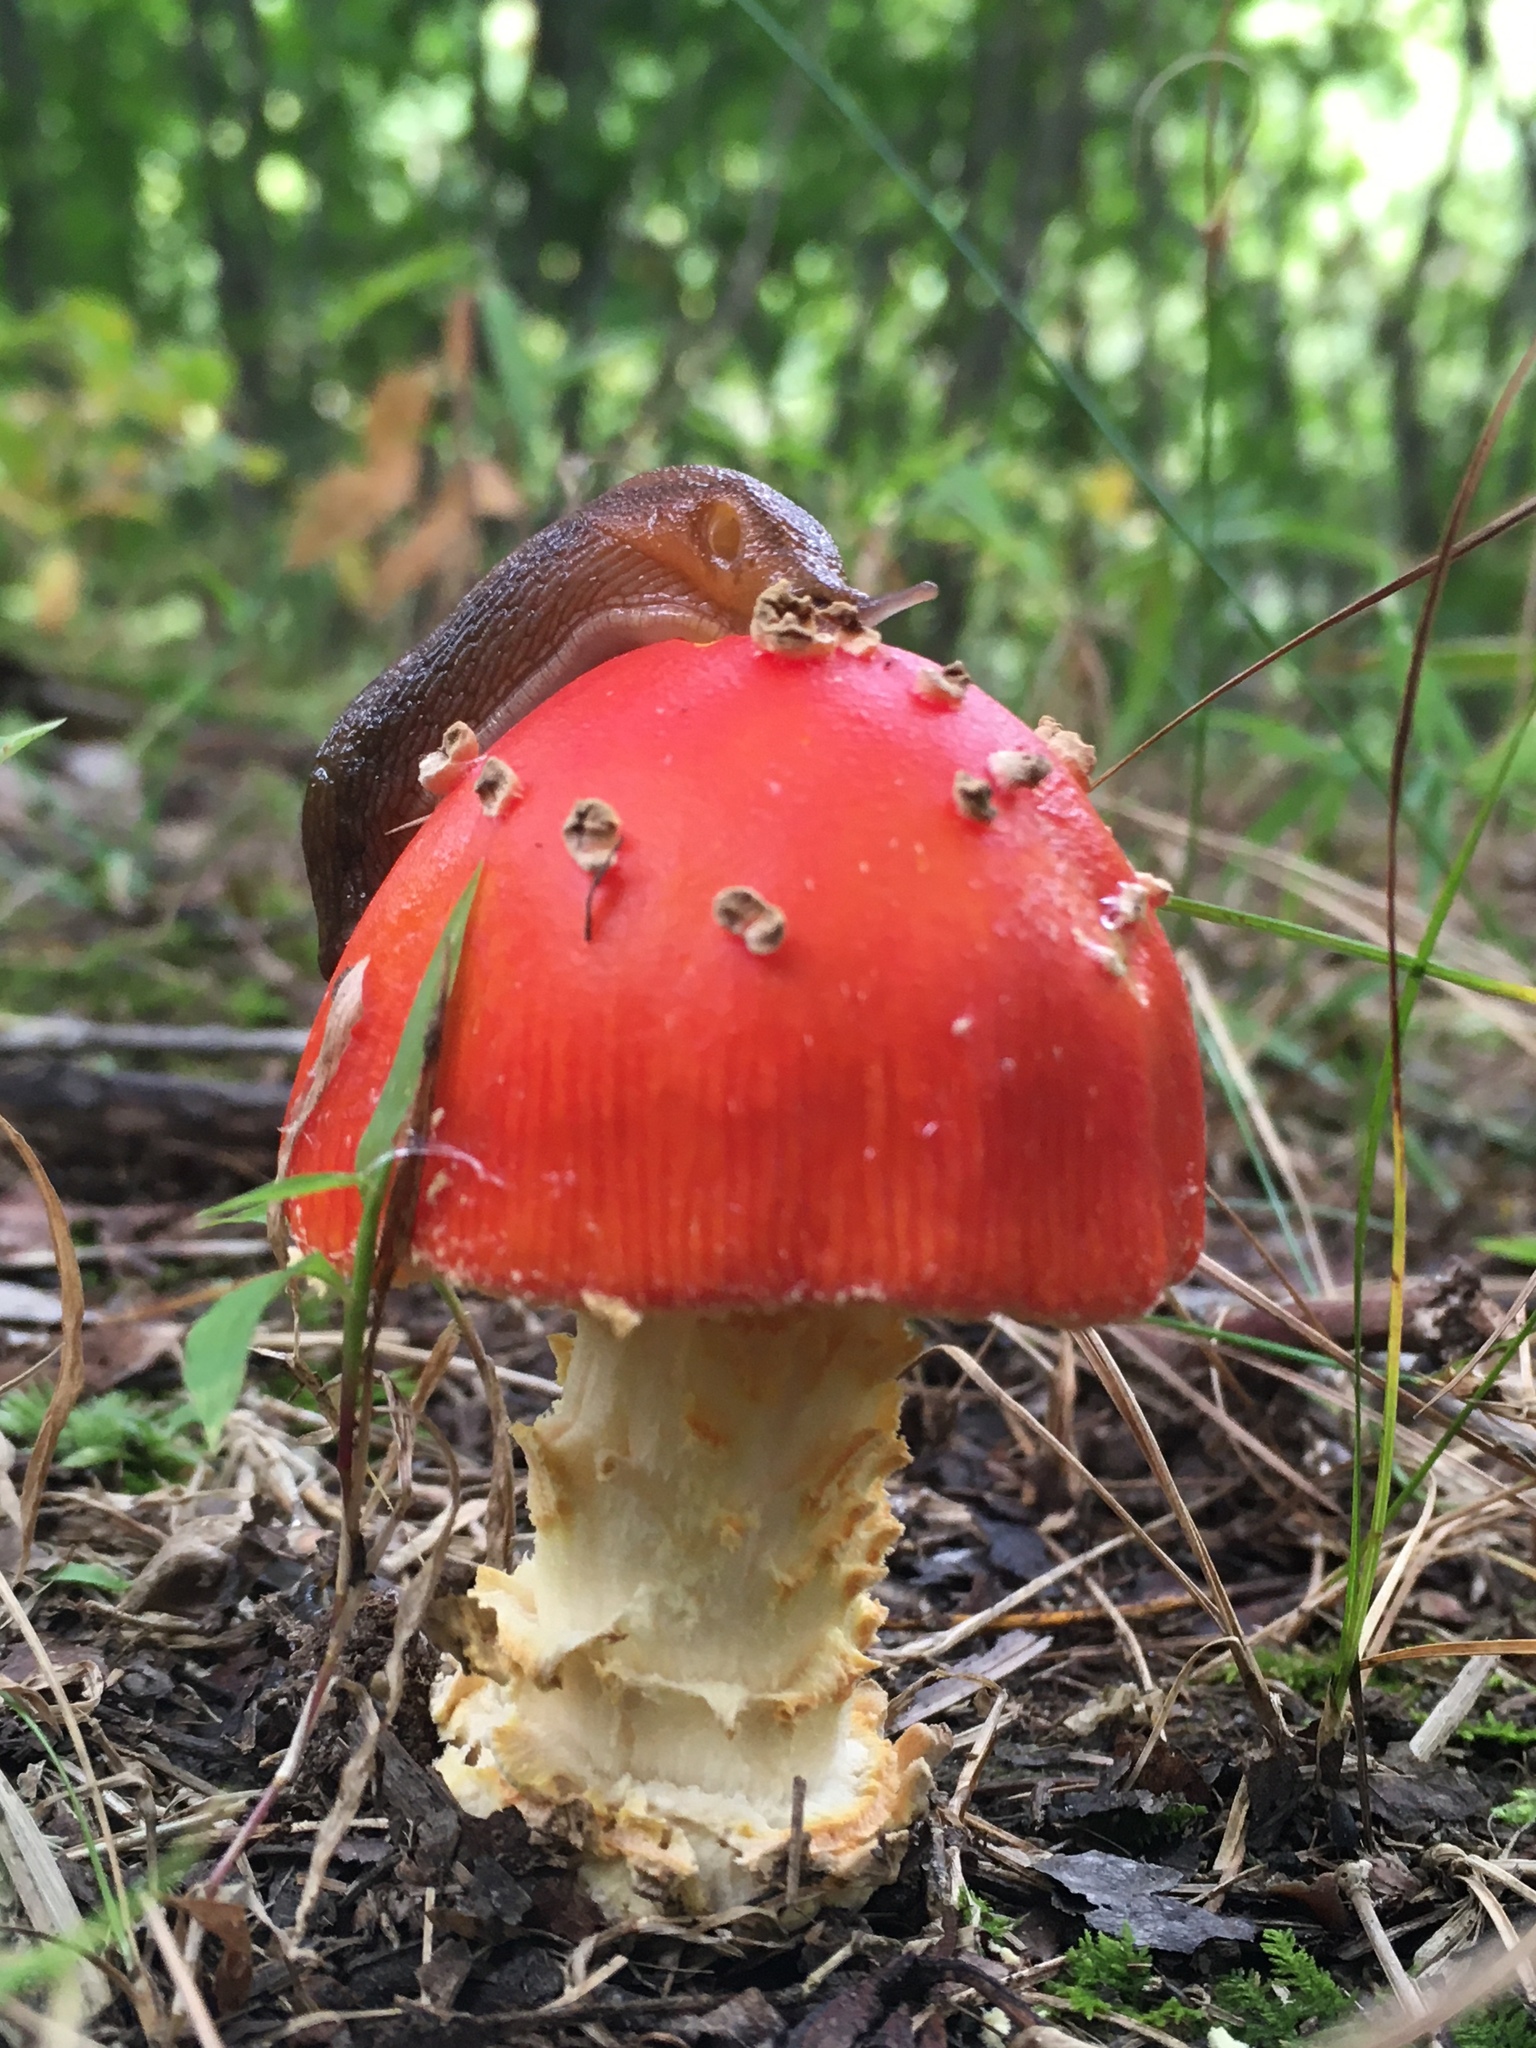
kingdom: Fungi
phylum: Basidiomycota
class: Agaricomycetes
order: Agaricales
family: Amanitaceae
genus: Amanita
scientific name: Amanita parcivolvata
